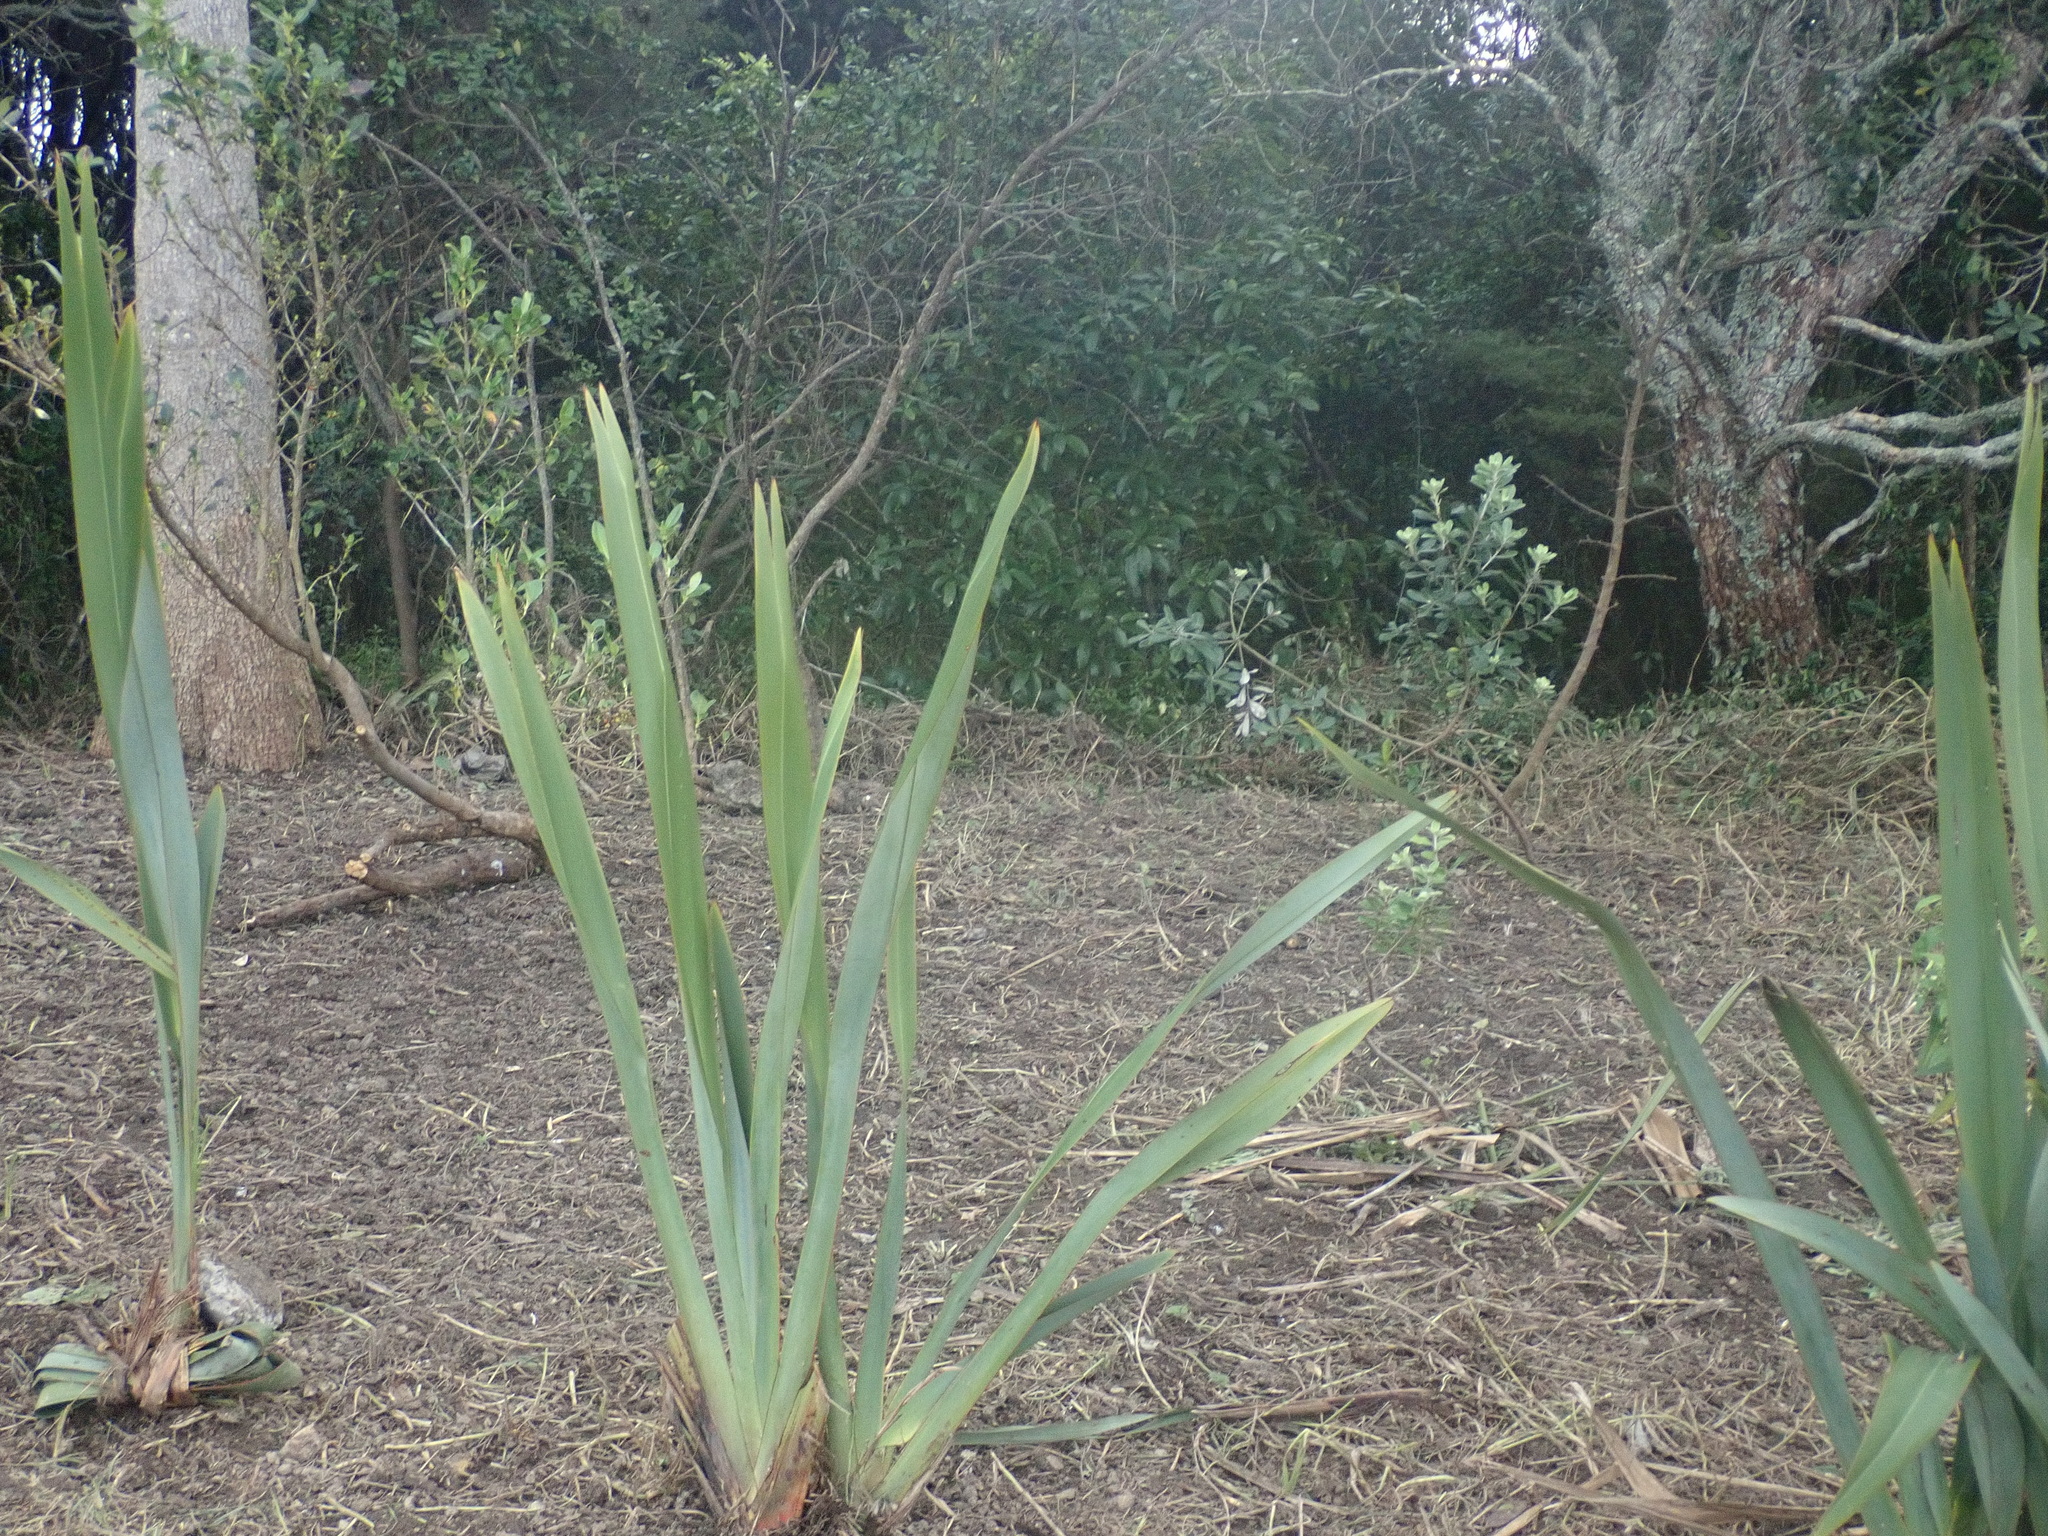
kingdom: Plantae
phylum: Tracheophyta
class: Magnoliopsida
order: Apiales
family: Pittosporaceae
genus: Pittosporum
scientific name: Pittosporum crassifolium
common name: Karo
